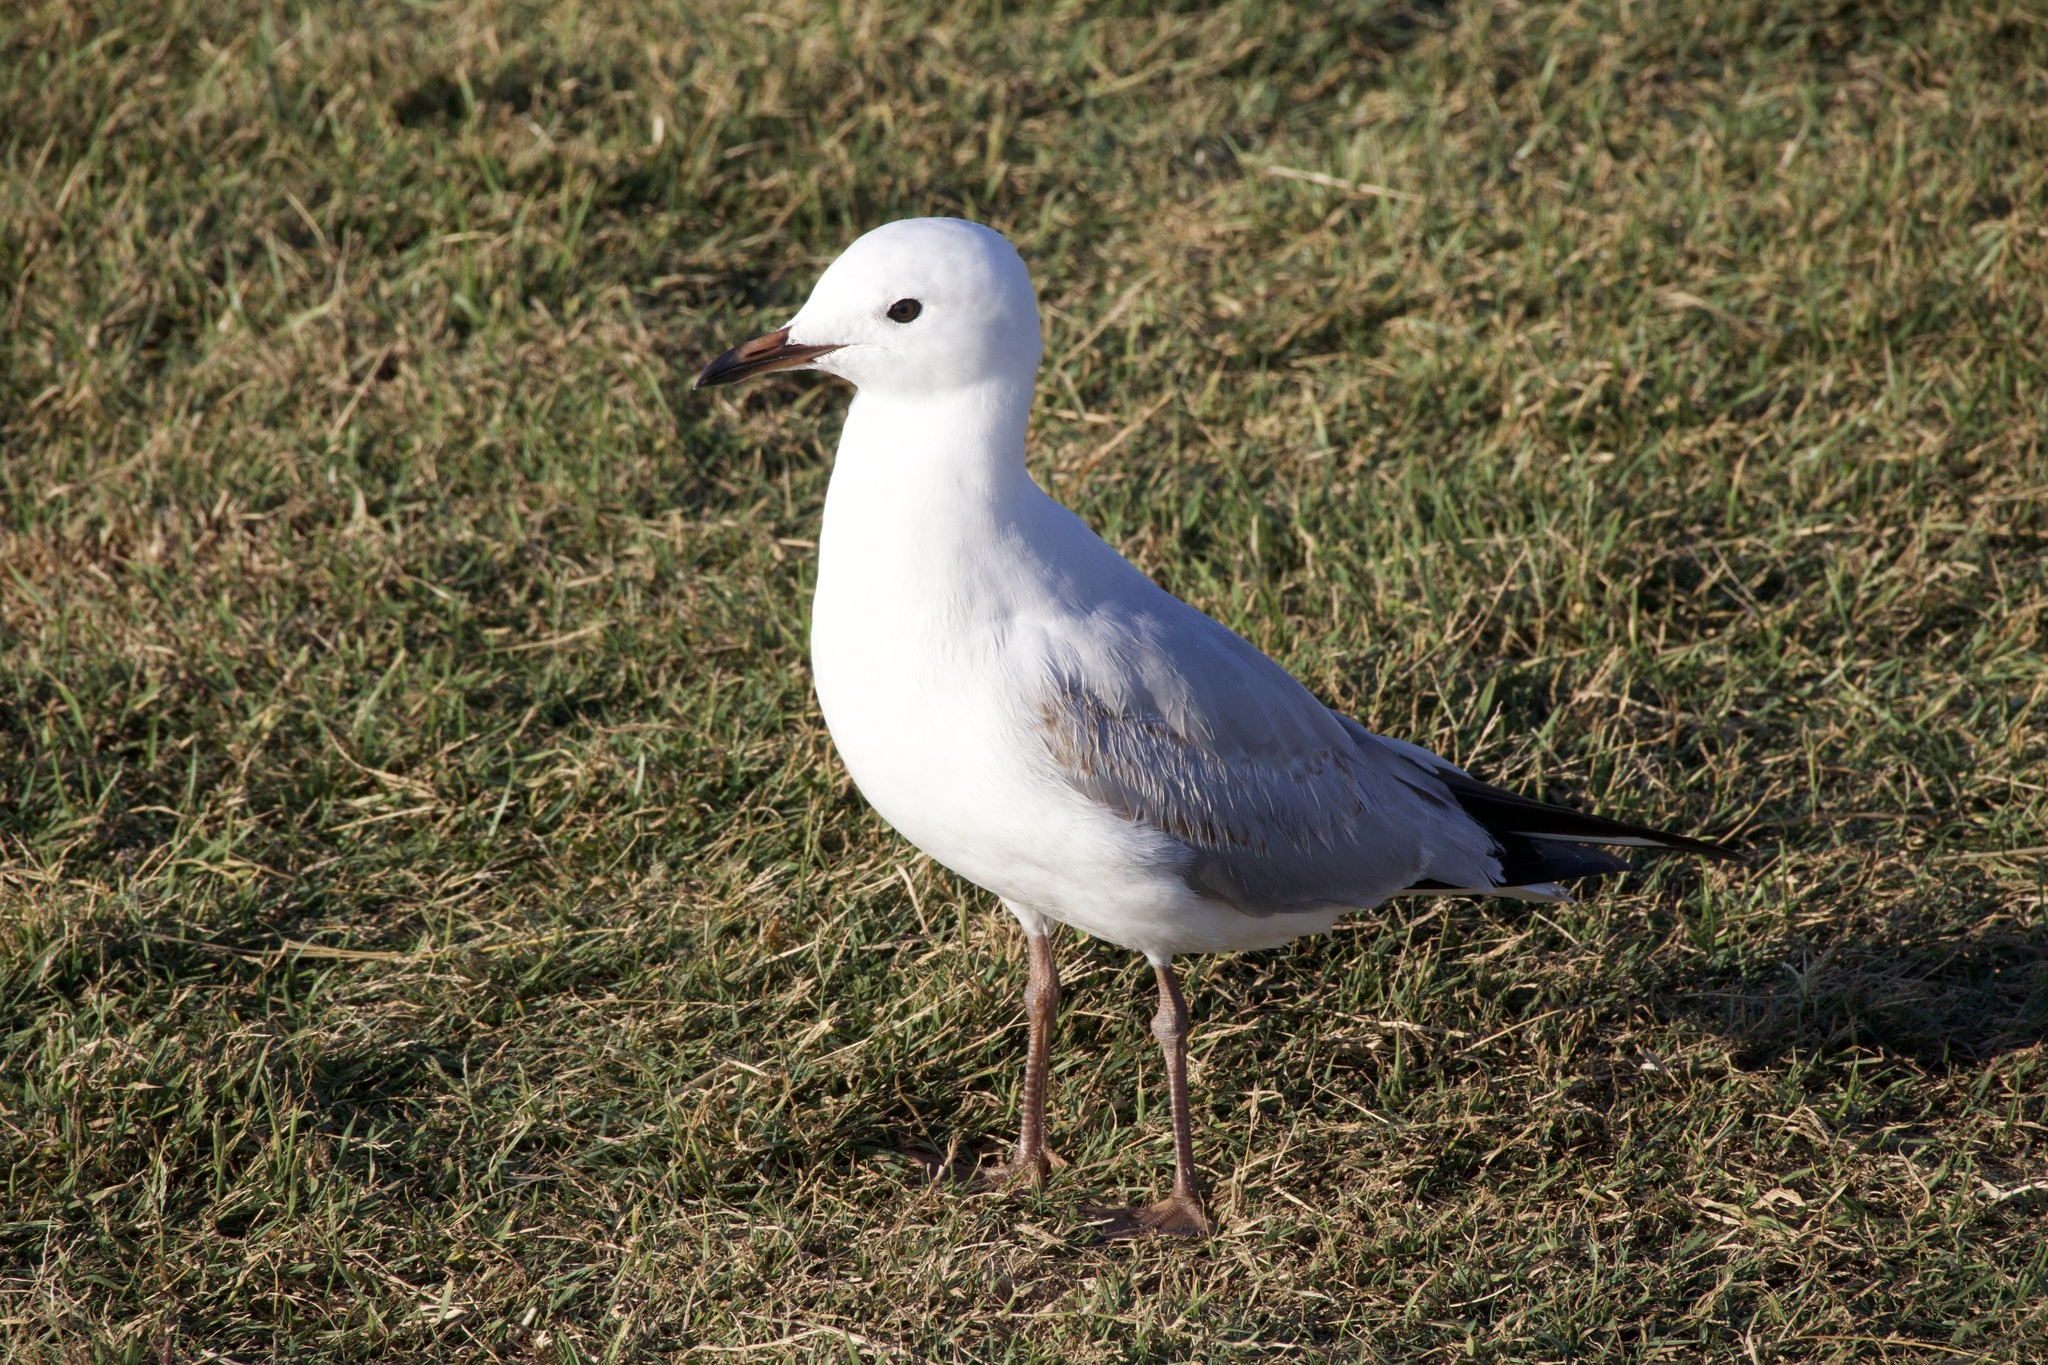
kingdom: Animalia
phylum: Chordata
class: Aves
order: Charadriiformes
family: Laridae
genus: Chroicocephalus
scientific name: Chroicocephalus novaehollandiae
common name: Silver gull
